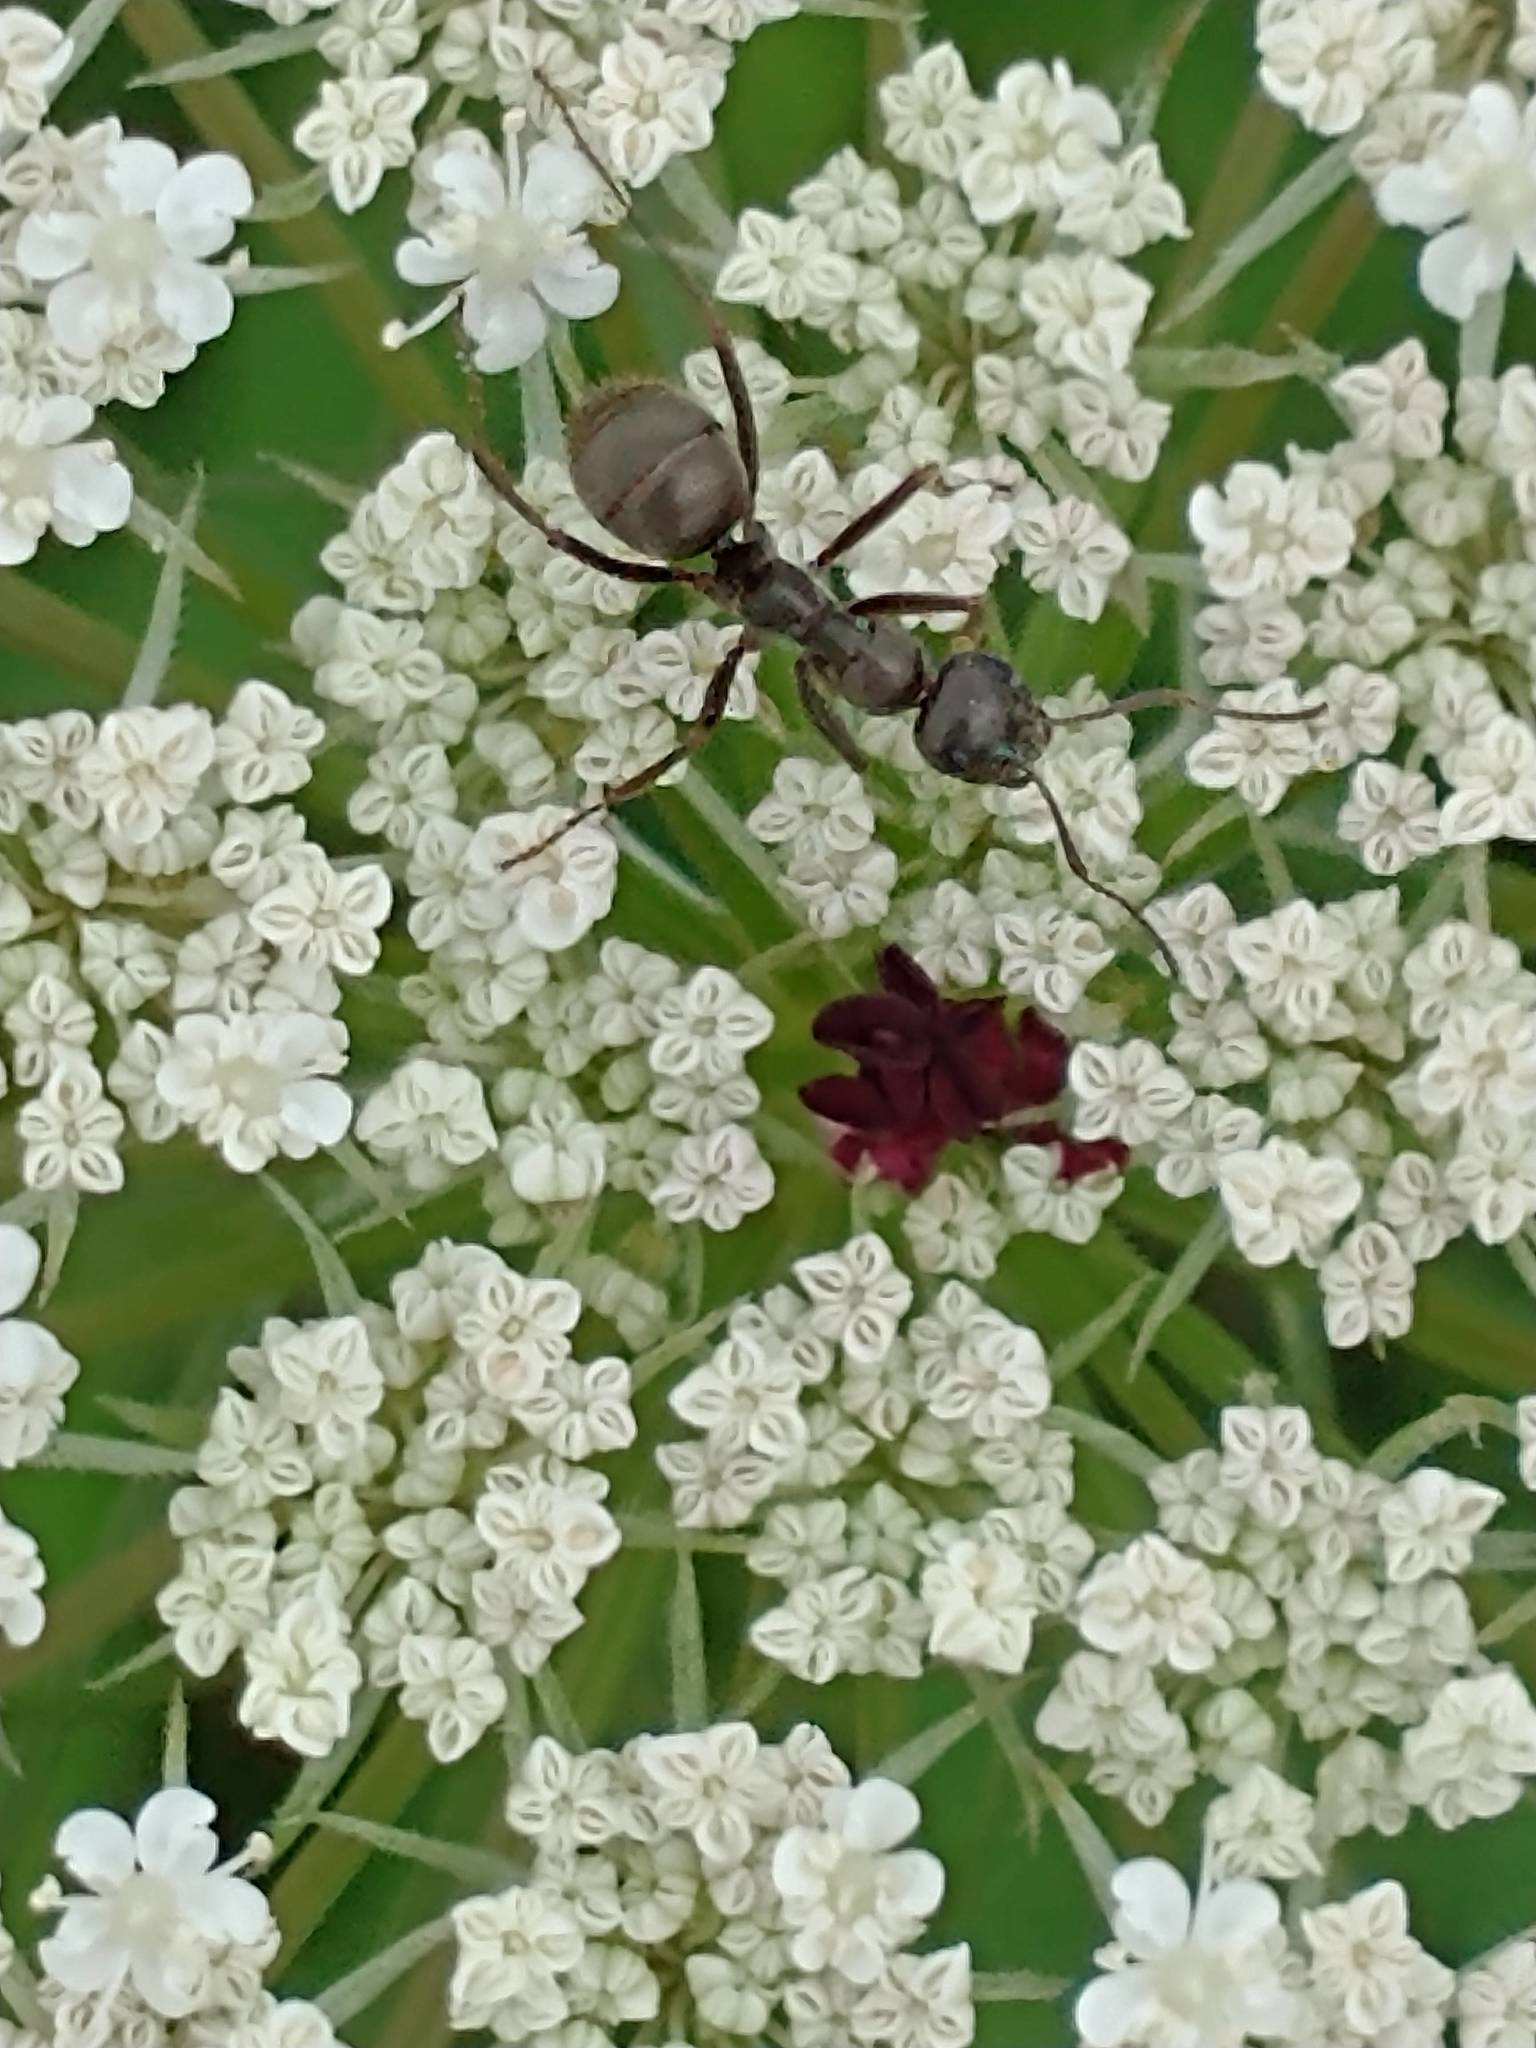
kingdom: Animalia
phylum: Arthropoda
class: Insecta
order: Hymenoptera
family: Formicidae
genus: Formica
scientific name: Formica
